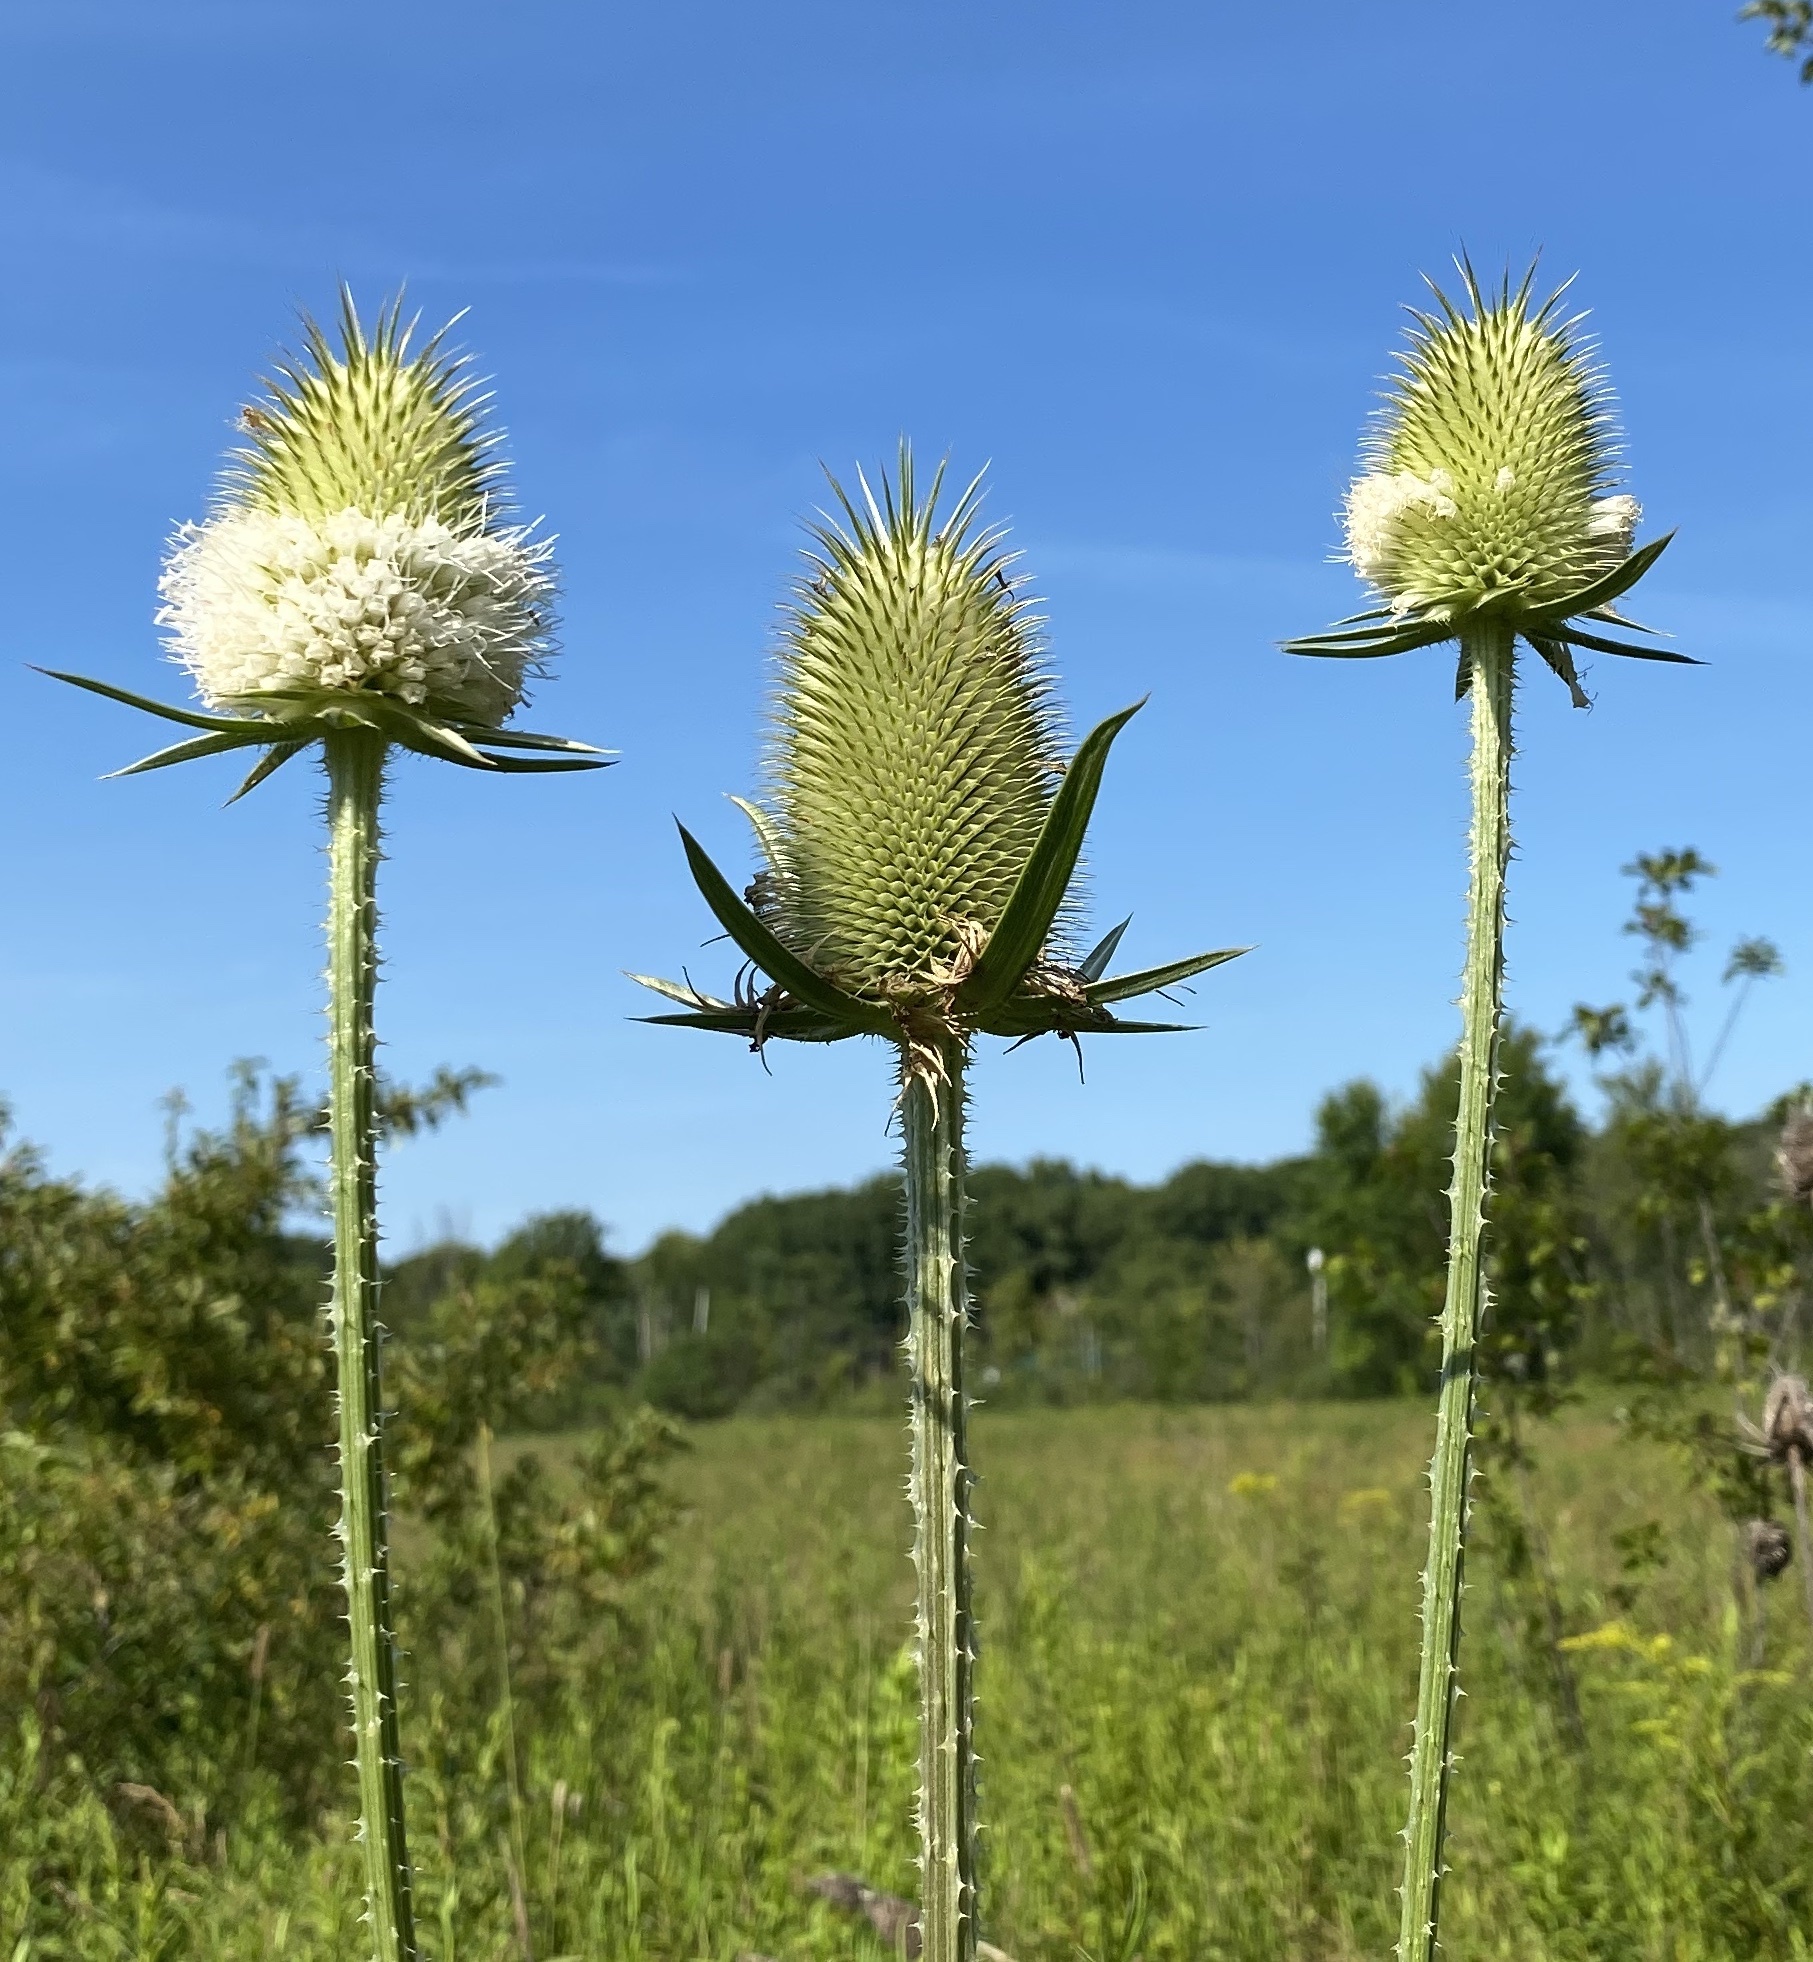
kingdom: Plantae
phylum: Tracheophyta
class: Magnoliopsida
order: Dipsacales
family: Caprifoliaceae
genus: Dipsacus
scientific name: Dipsacus laciniatus
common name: Cut-leaved teasel
